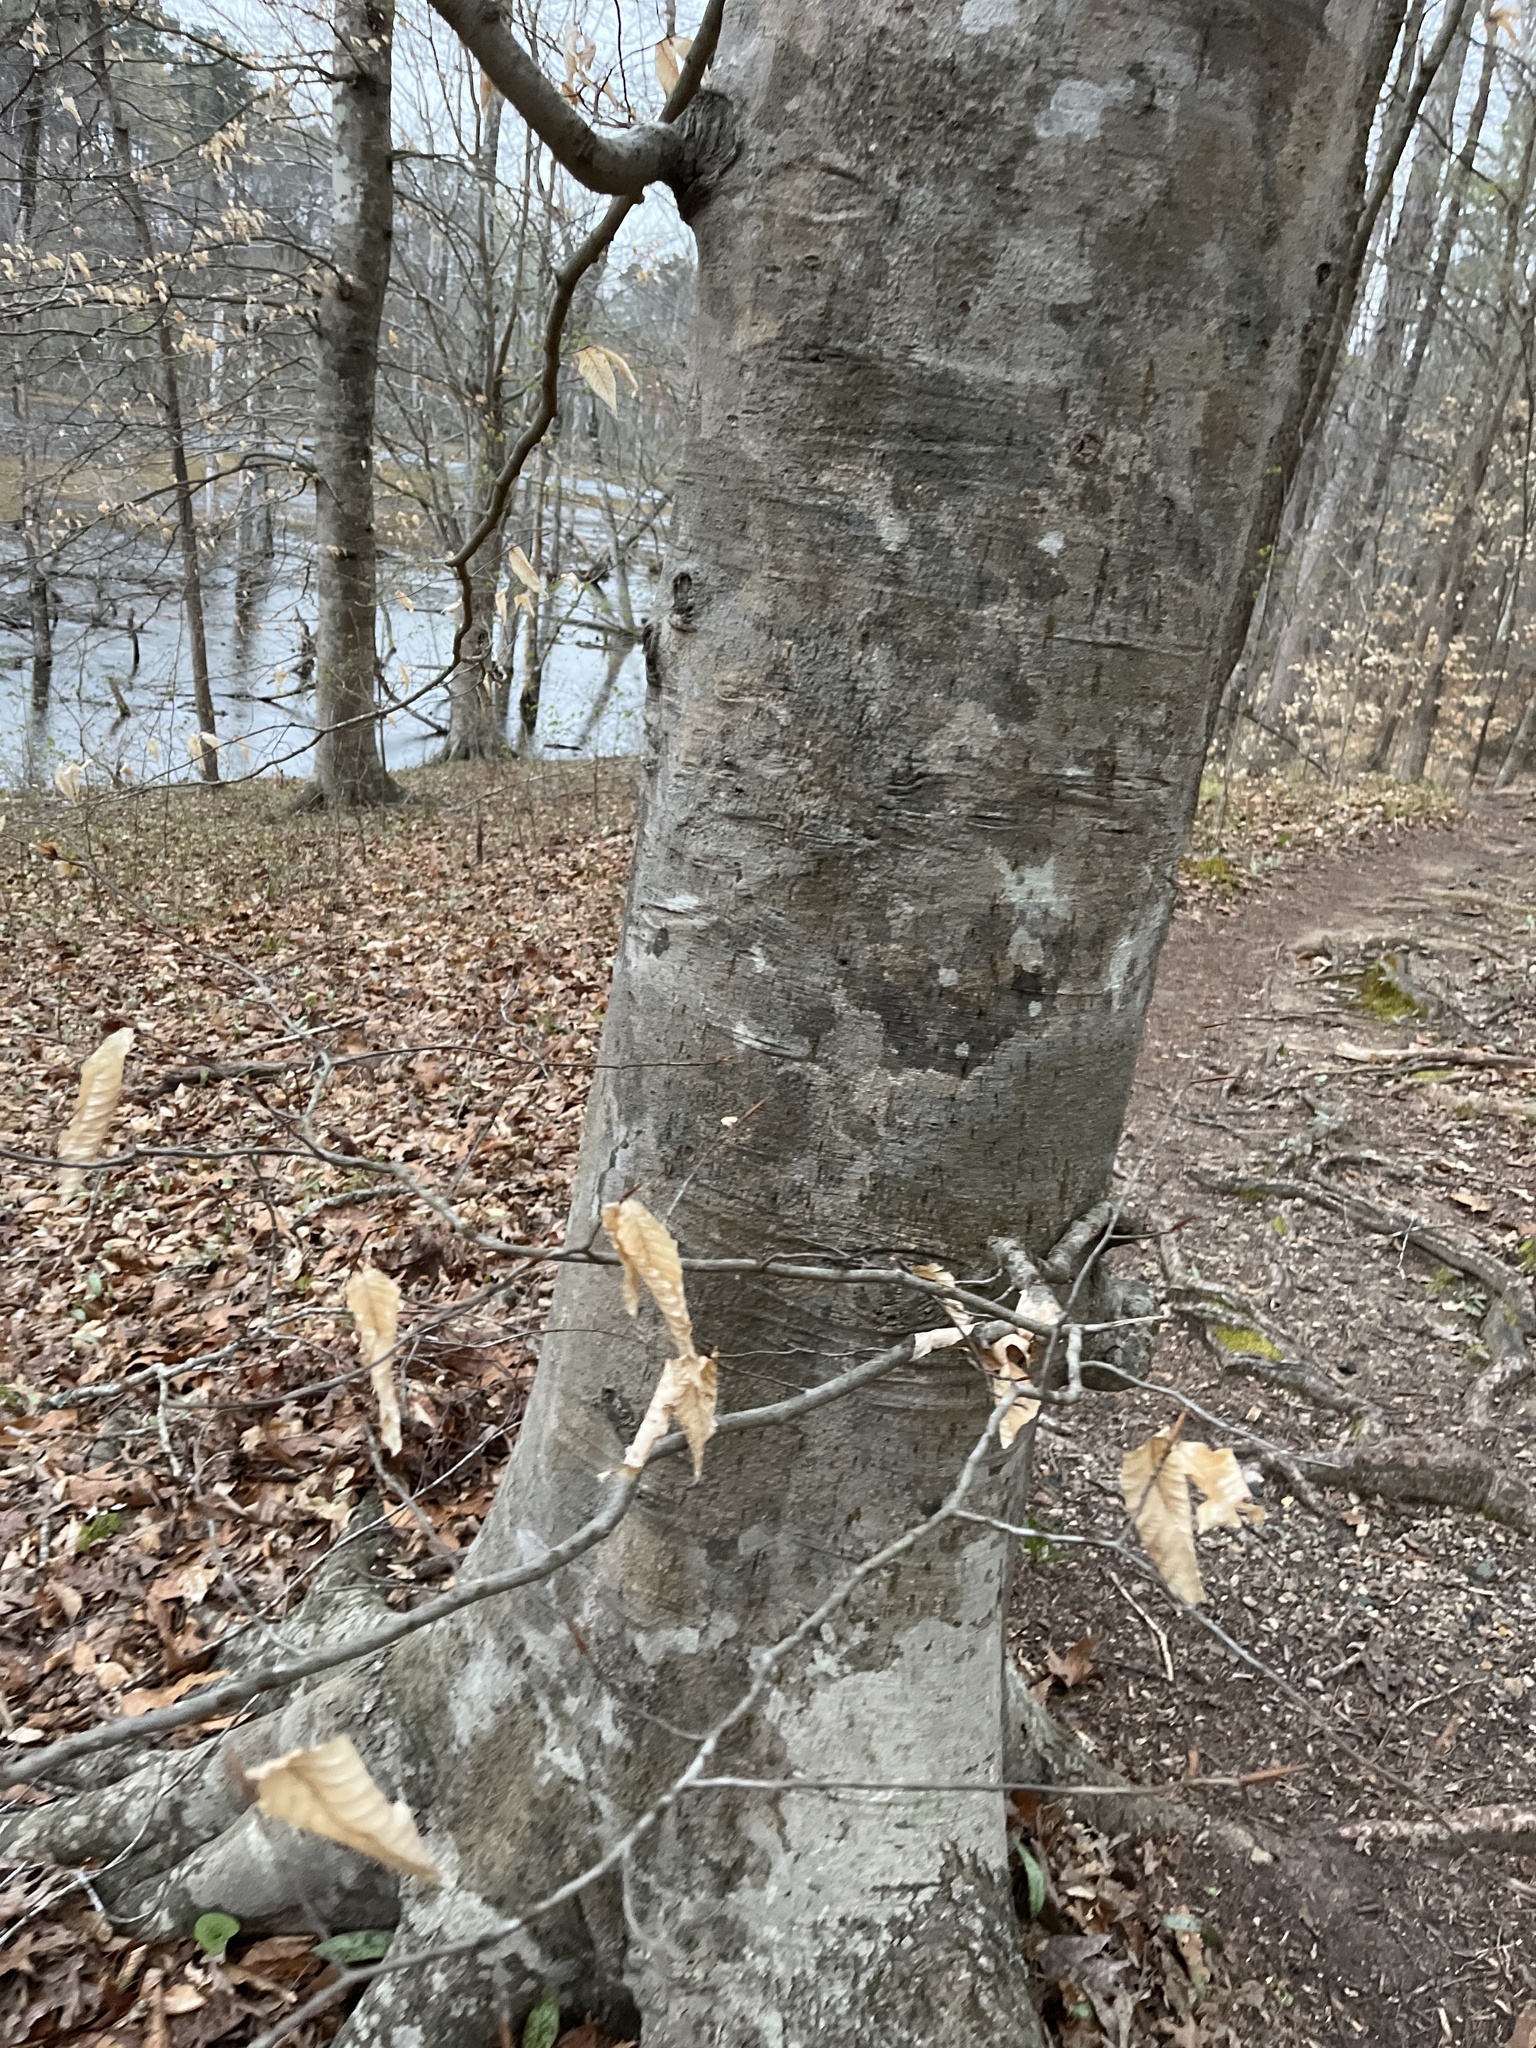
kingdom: Plantae
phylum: Tracheophyta
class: Magnoliopsida
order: Fagales
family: Fagaceae
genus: Fagus
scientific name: Fagus grandifolia
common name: American beech
